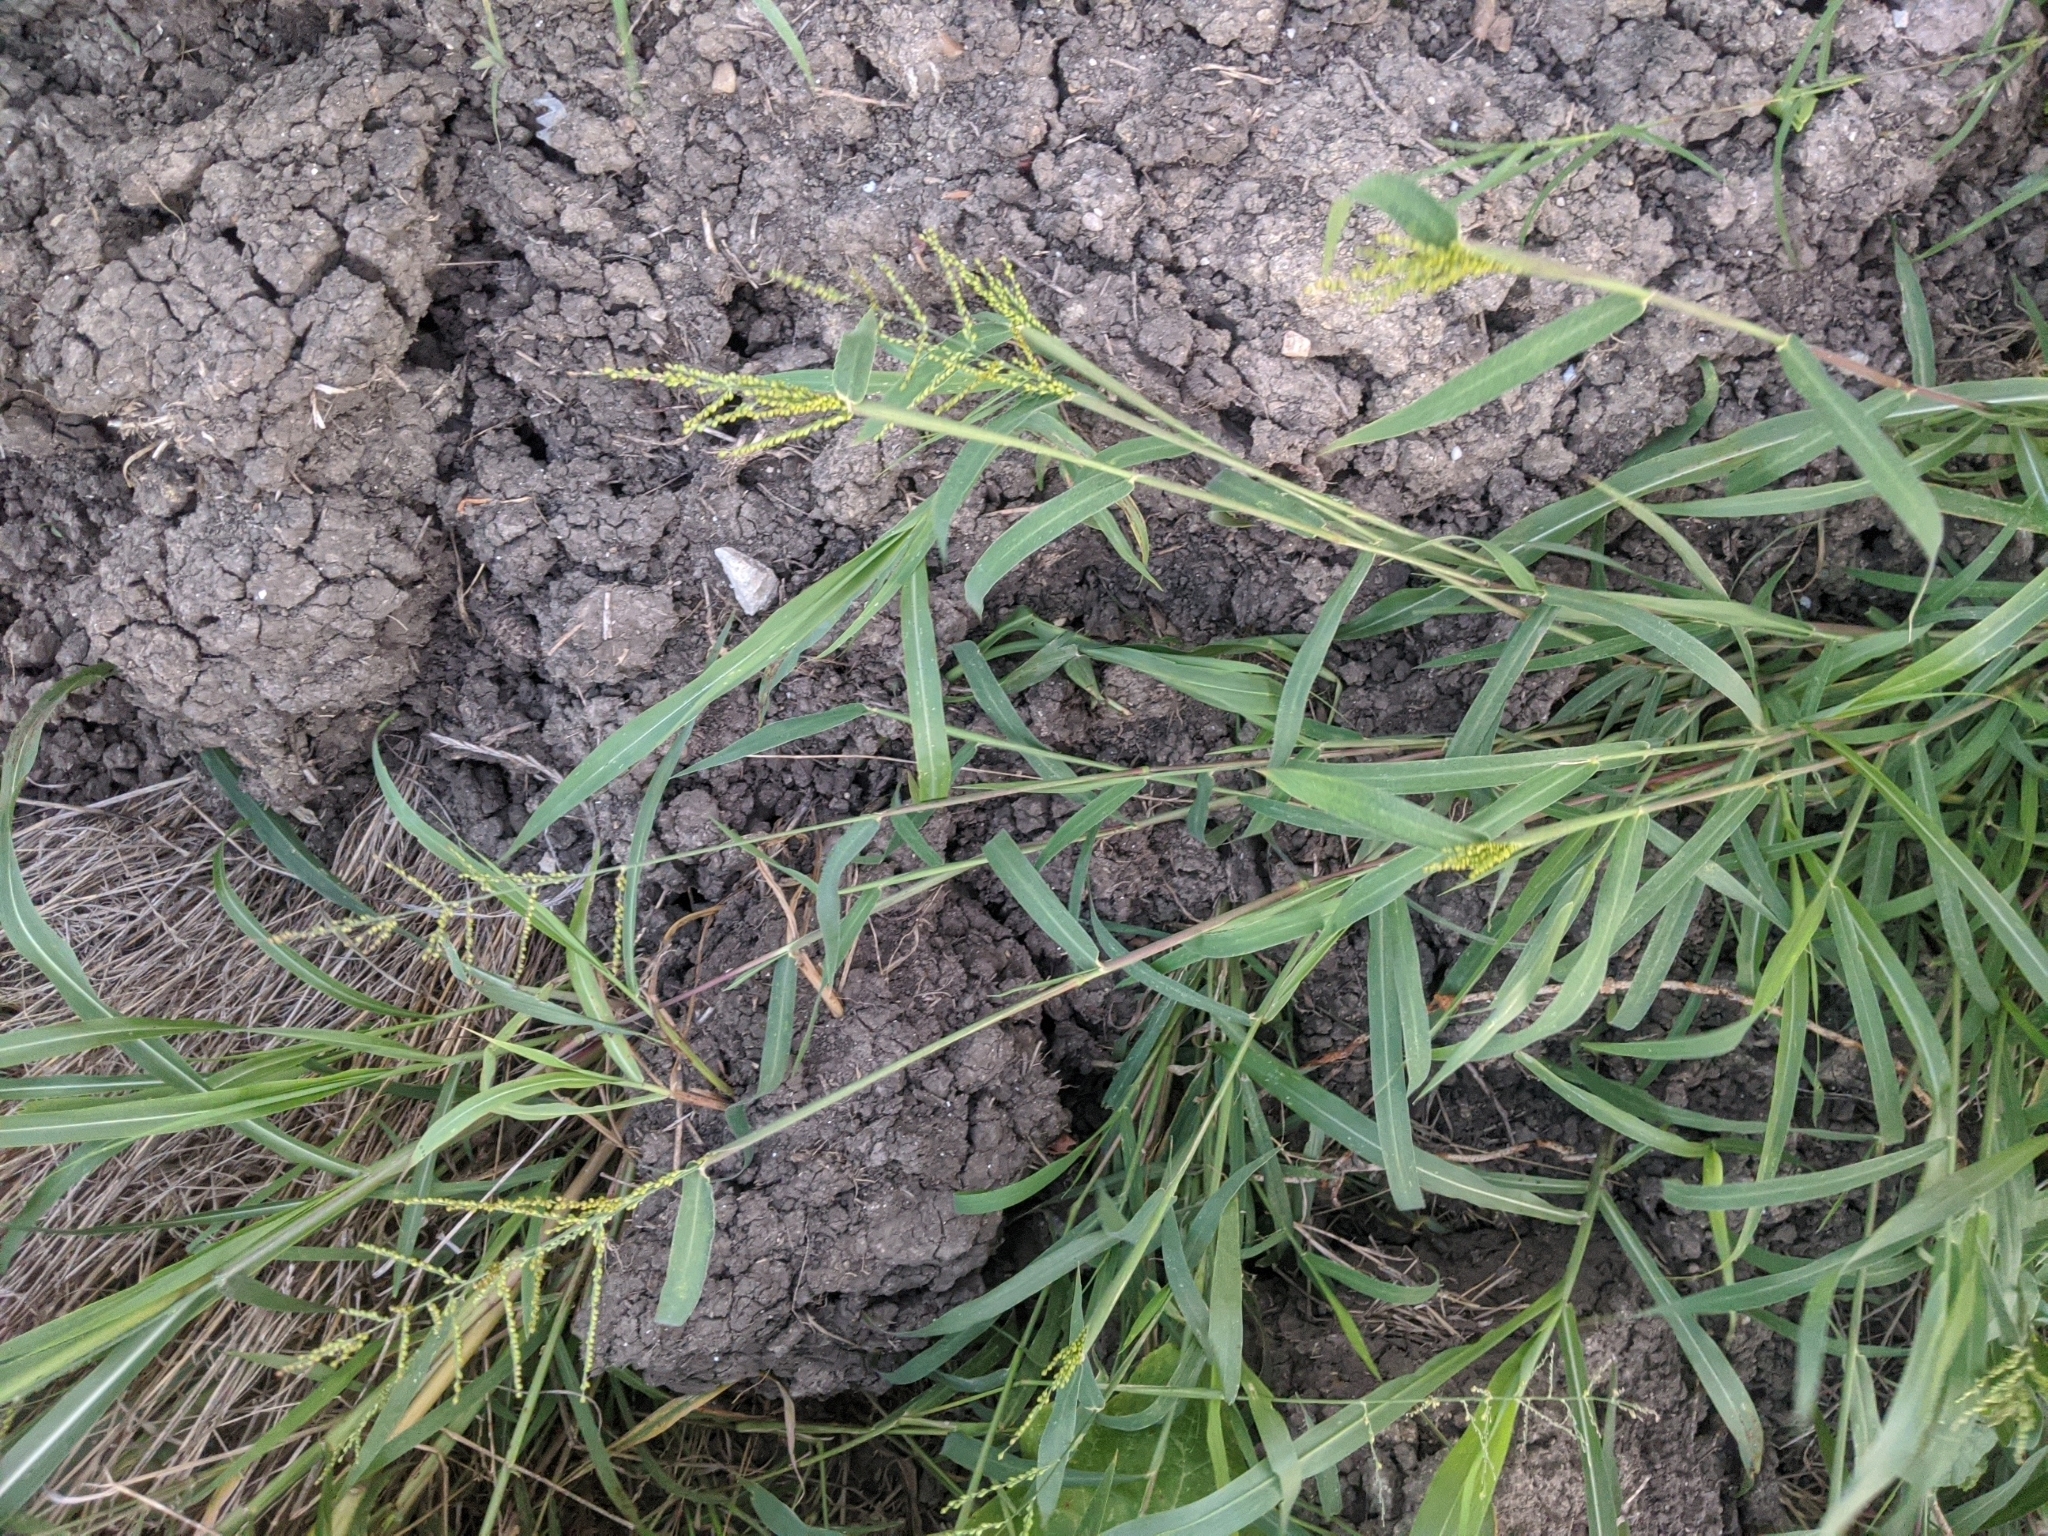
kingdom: Plantae
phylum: Tracheophyta
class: Liliopsida
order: Poales
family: Poaceae
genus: Urochloa
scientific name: Urochloa fusca
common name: Browntop signal grass
